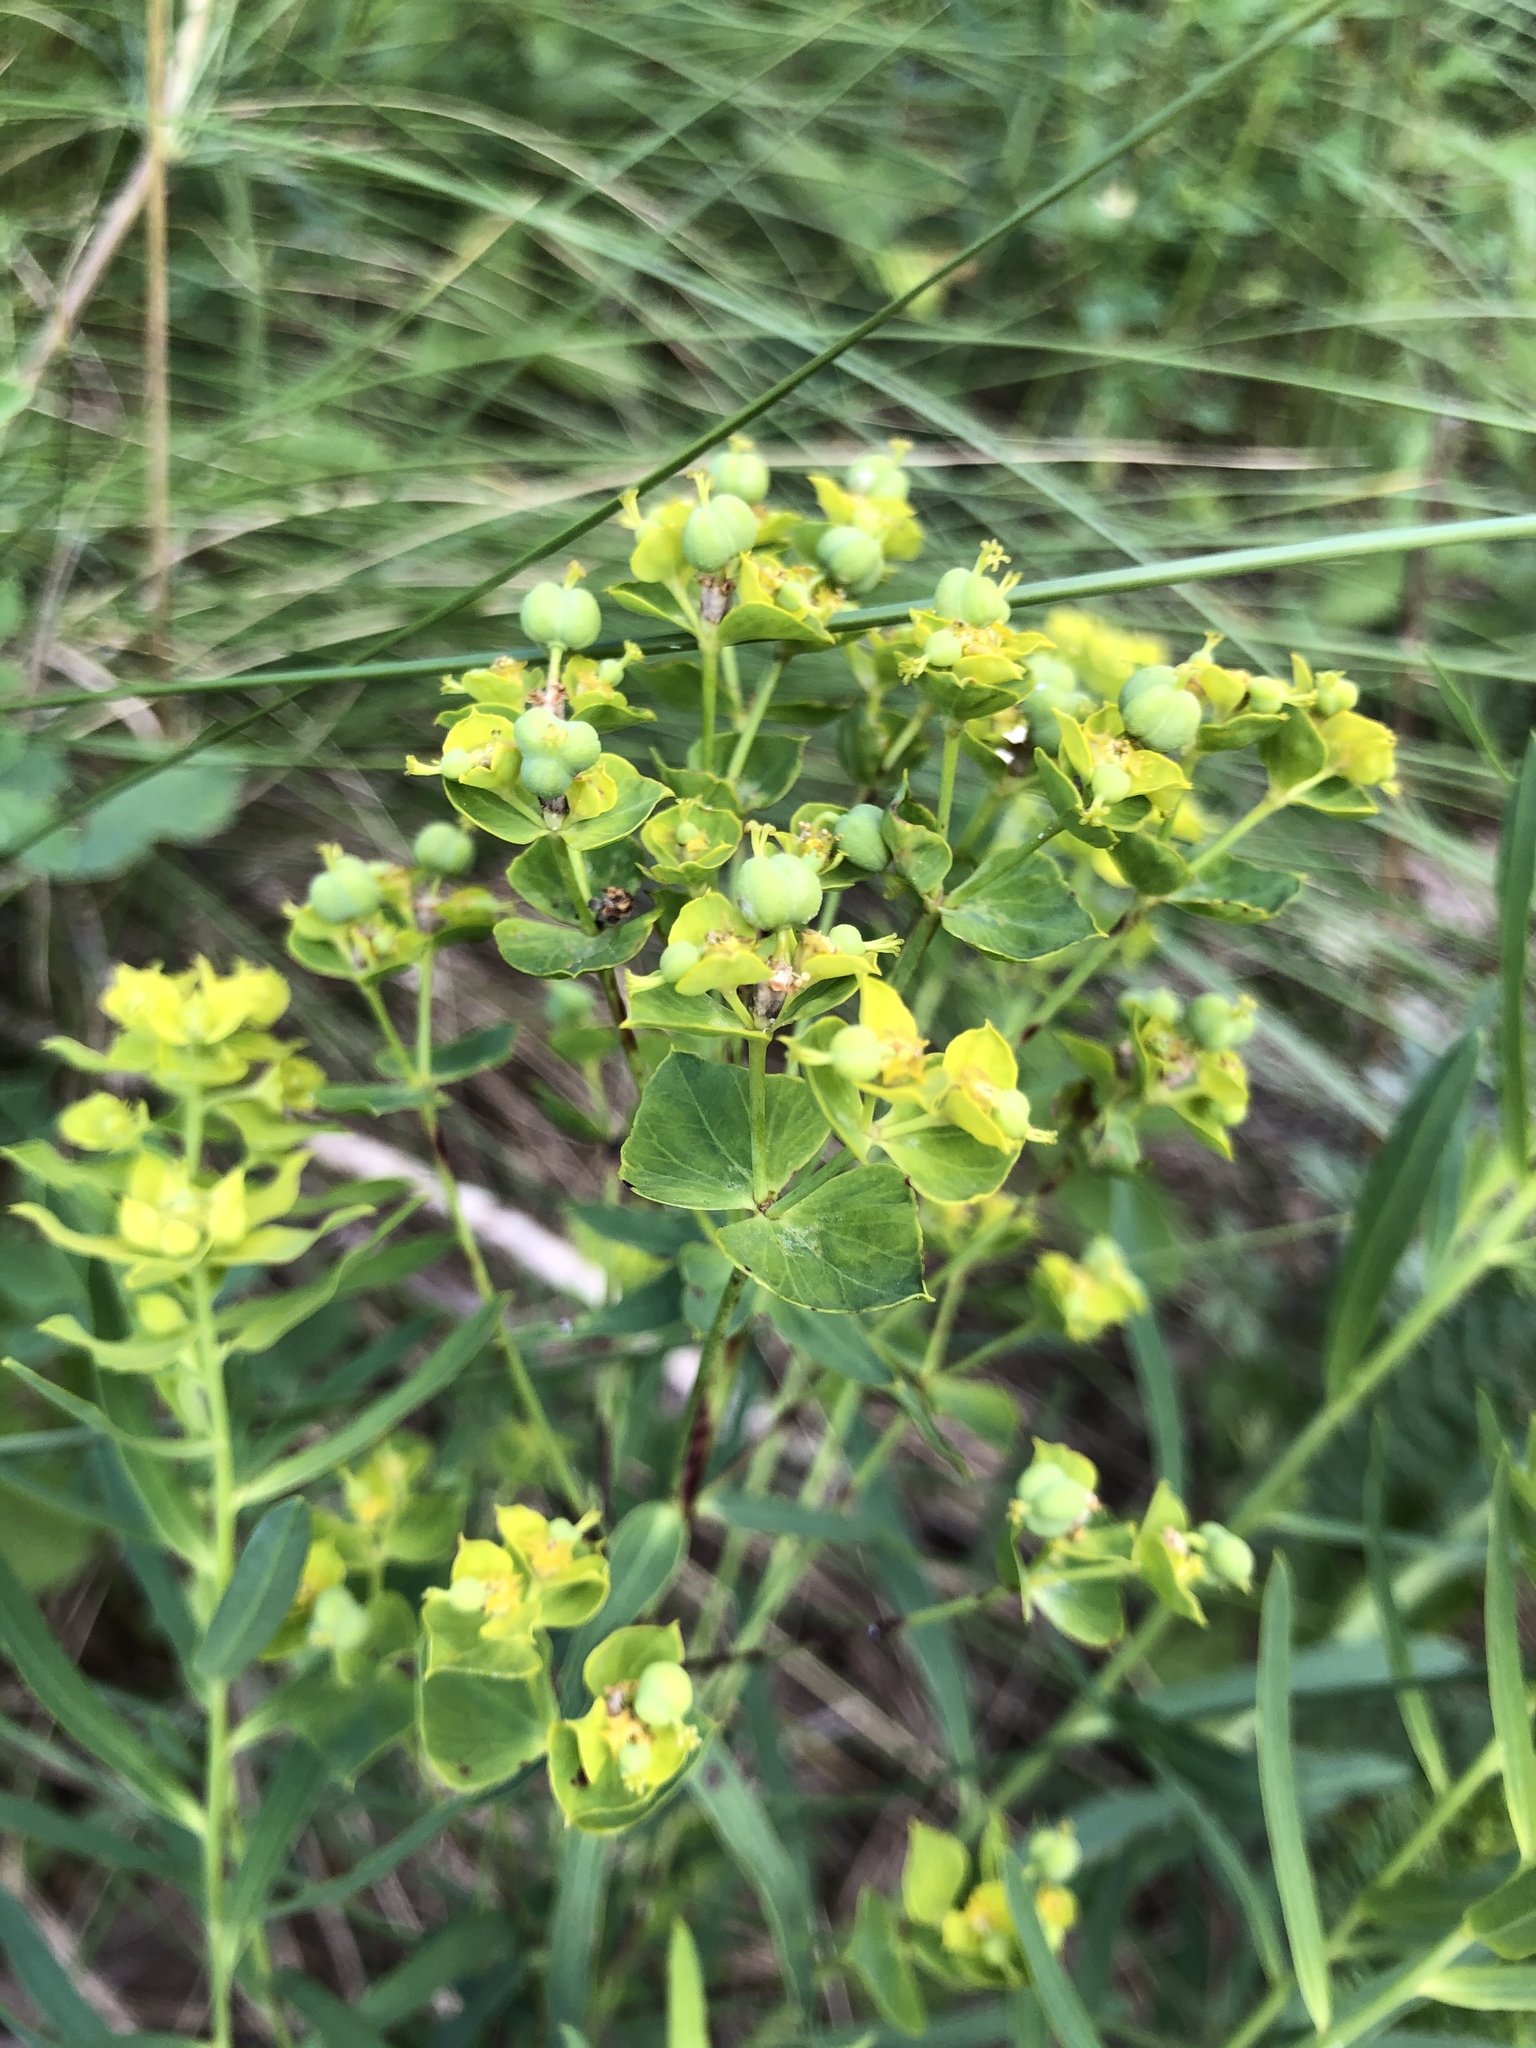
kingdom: Plantae
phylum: Tracheophyta
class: Magnoliopsida
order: Malpighiales
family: Euphorbiaceae
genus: Euphorbia
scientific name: Euphorbia virgata
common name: Leafy spurge
